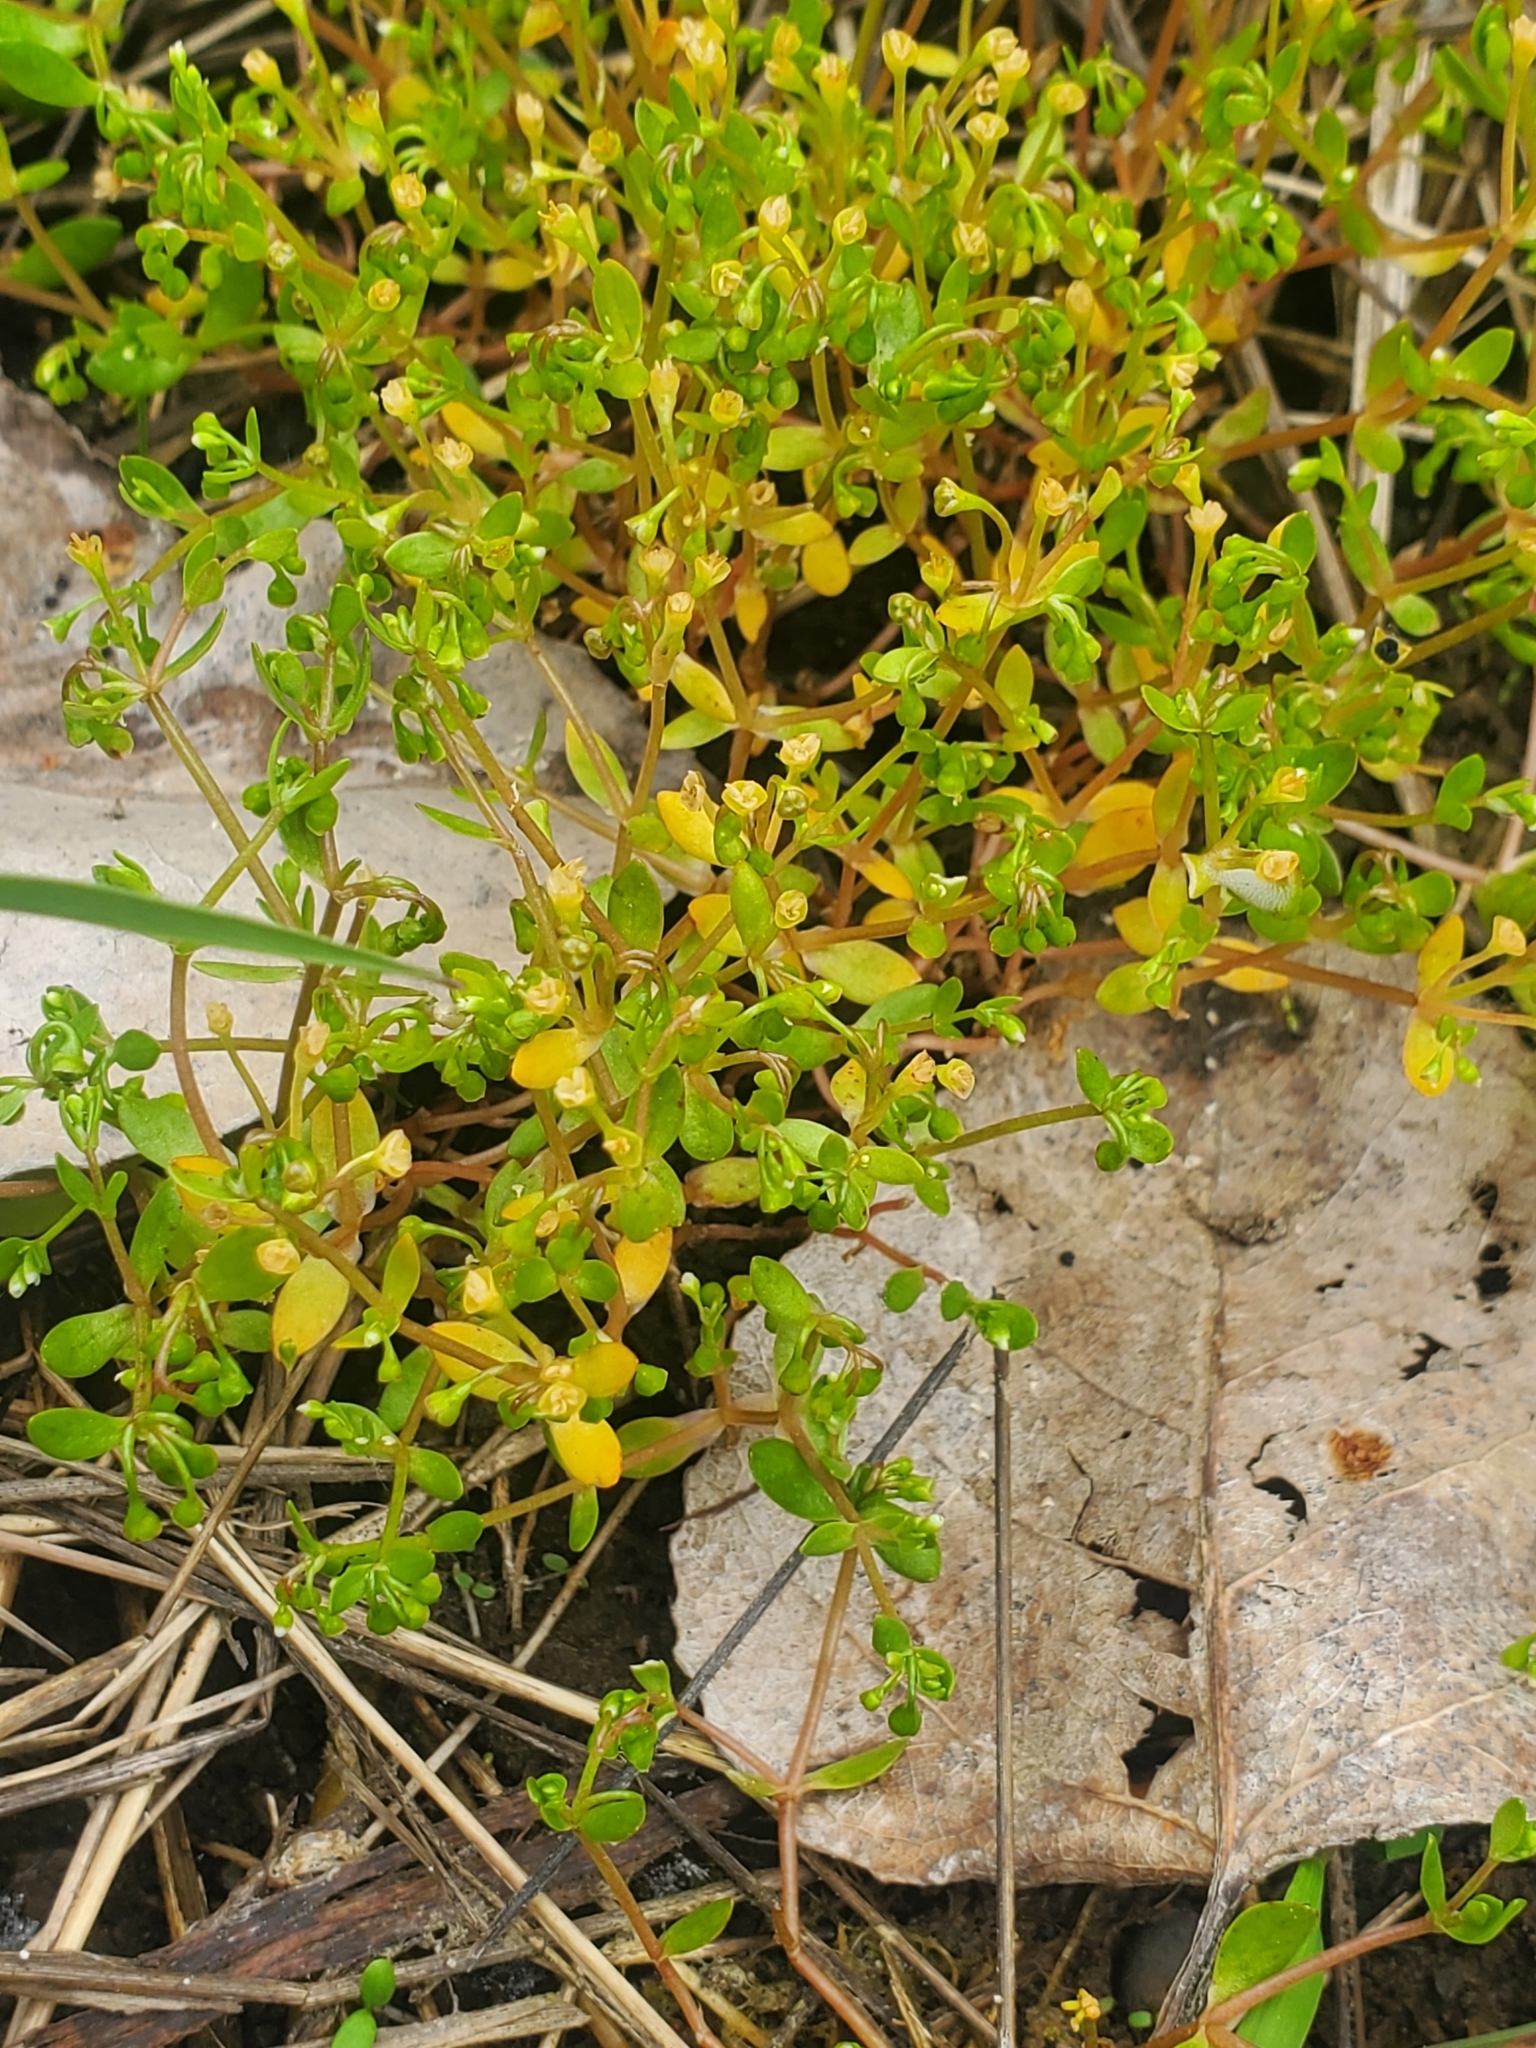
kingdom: Plantae
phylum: Tracheophyta
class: Magnoliopsida
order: Caryophyllales
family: Montiaceae
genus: Montia
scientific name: Montia fontana
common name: Blinks
